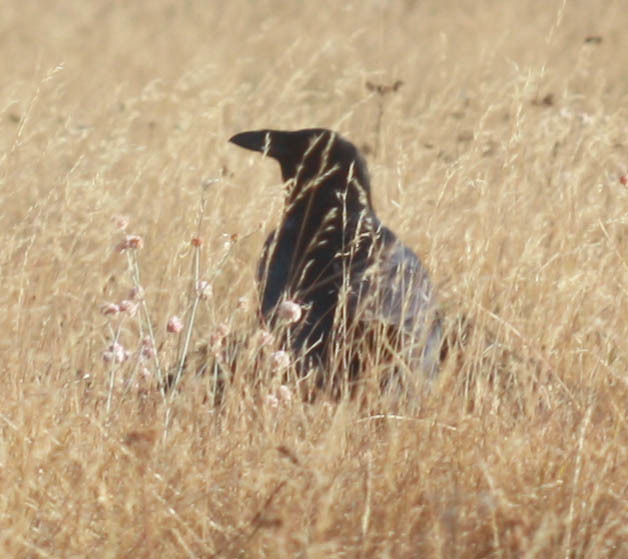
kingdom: Animalia
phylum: Chordata
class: Aves
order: Passeriformes
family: Corvidae
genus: Corvus
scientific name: Corvus corax
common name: Common raven
